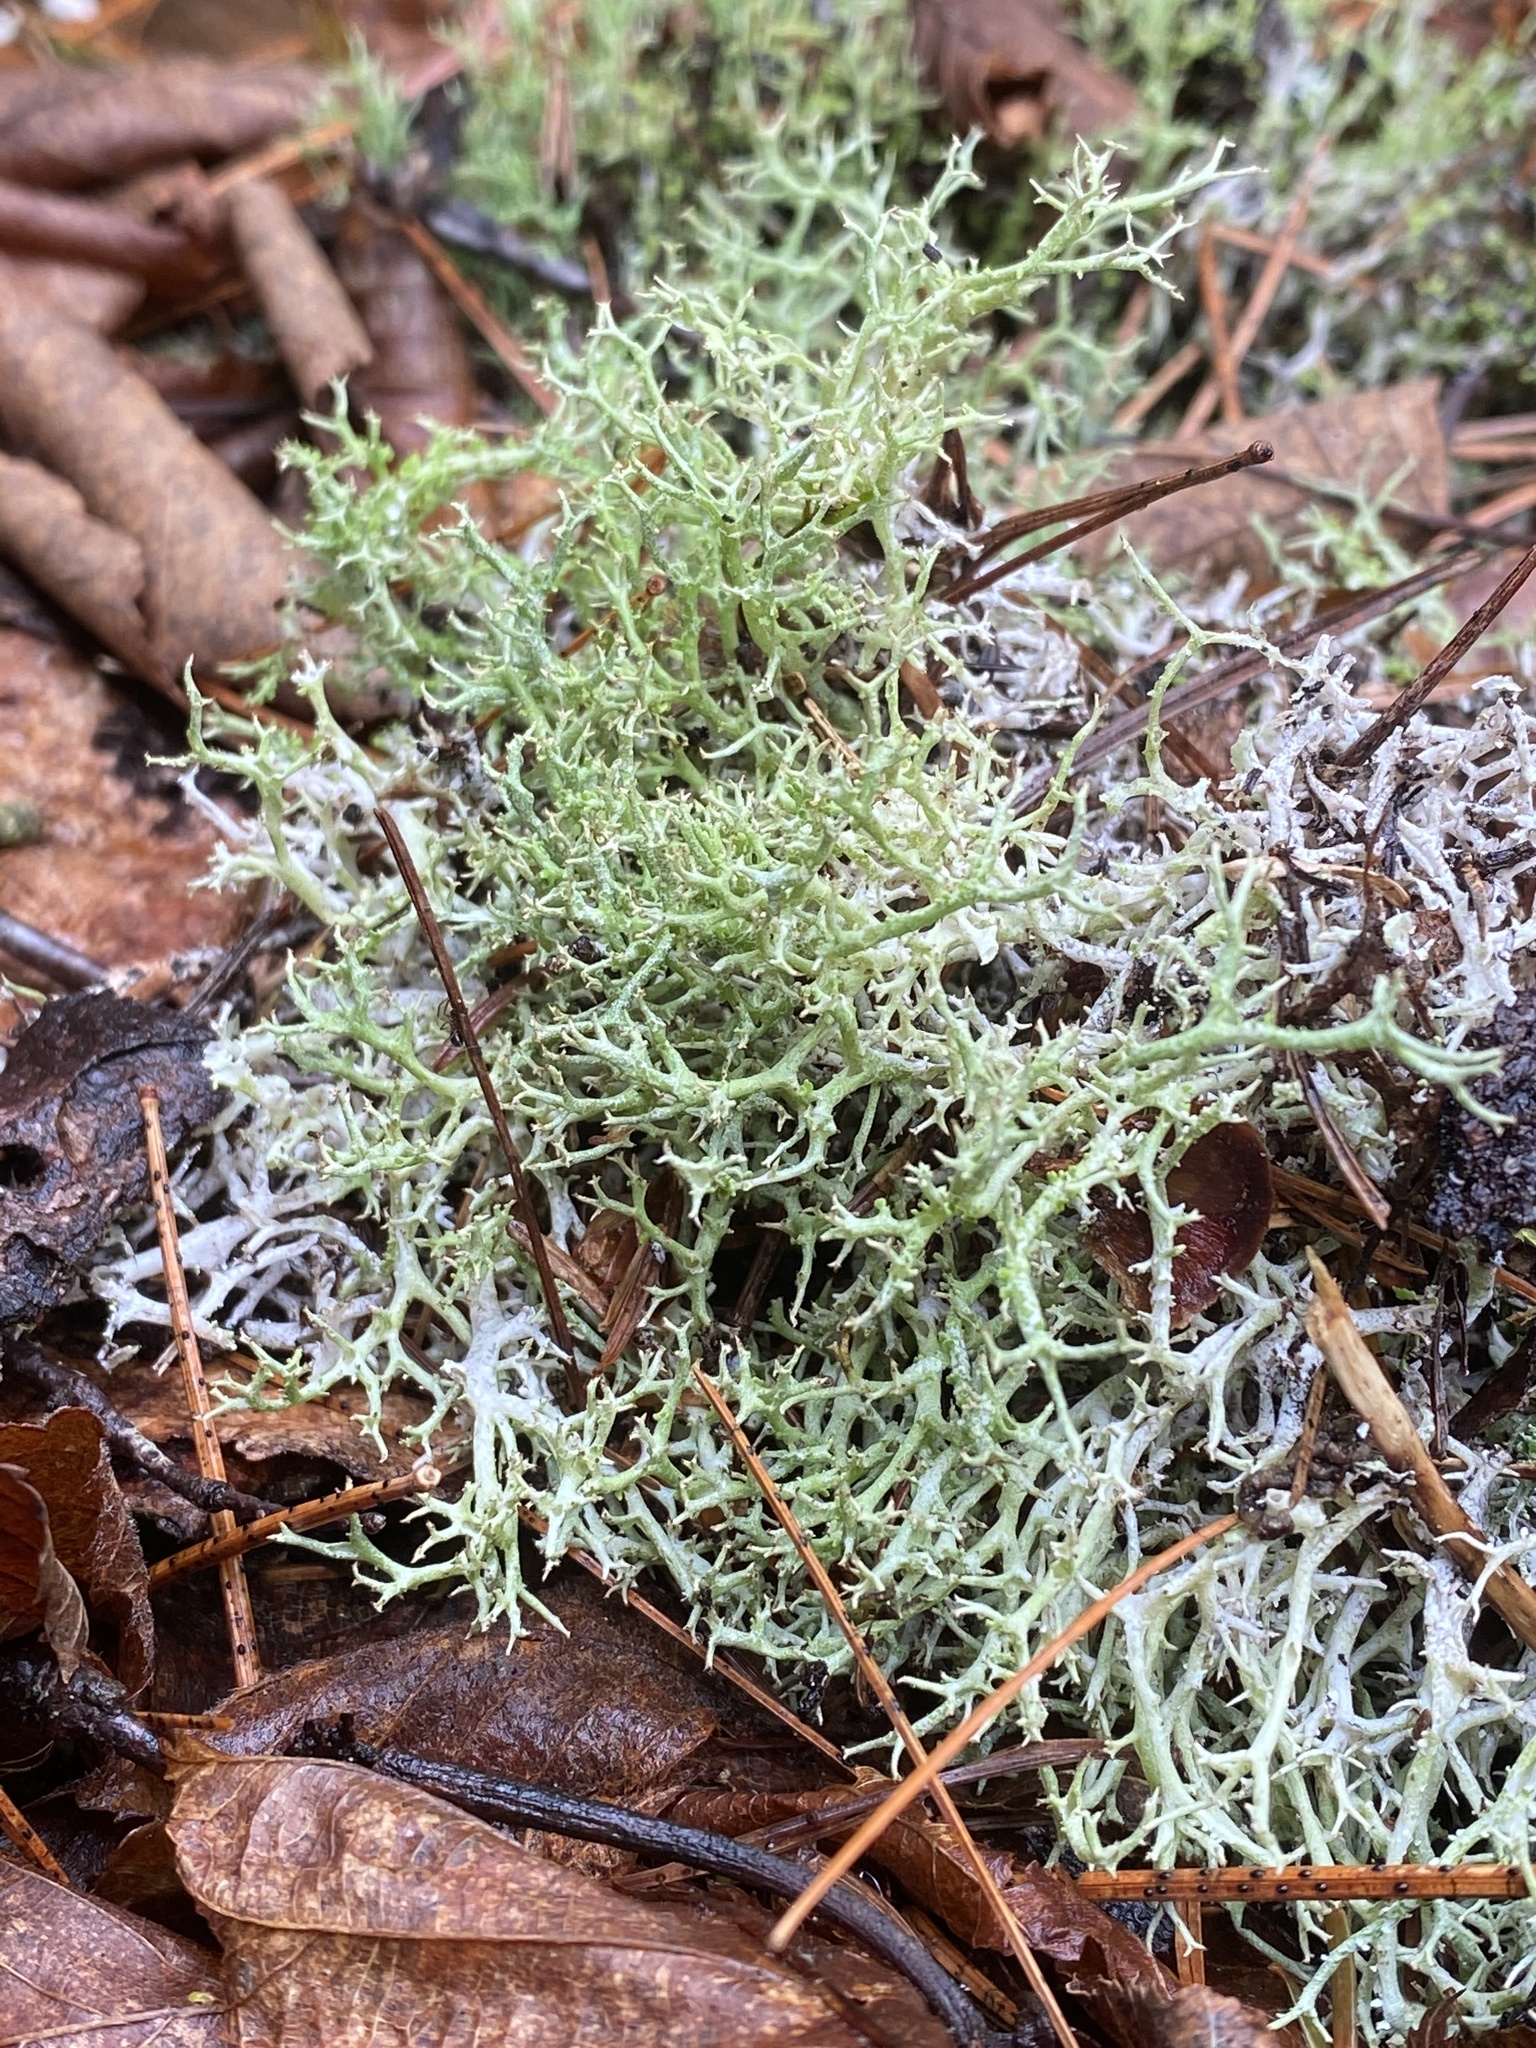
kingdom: Fungi
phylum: Ascomycota
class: Lecanoromycetes
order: Lecanorales
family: Cladoniaceae
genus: Cladonia
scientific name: Cladonia uncialis
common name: Thorn lichen
